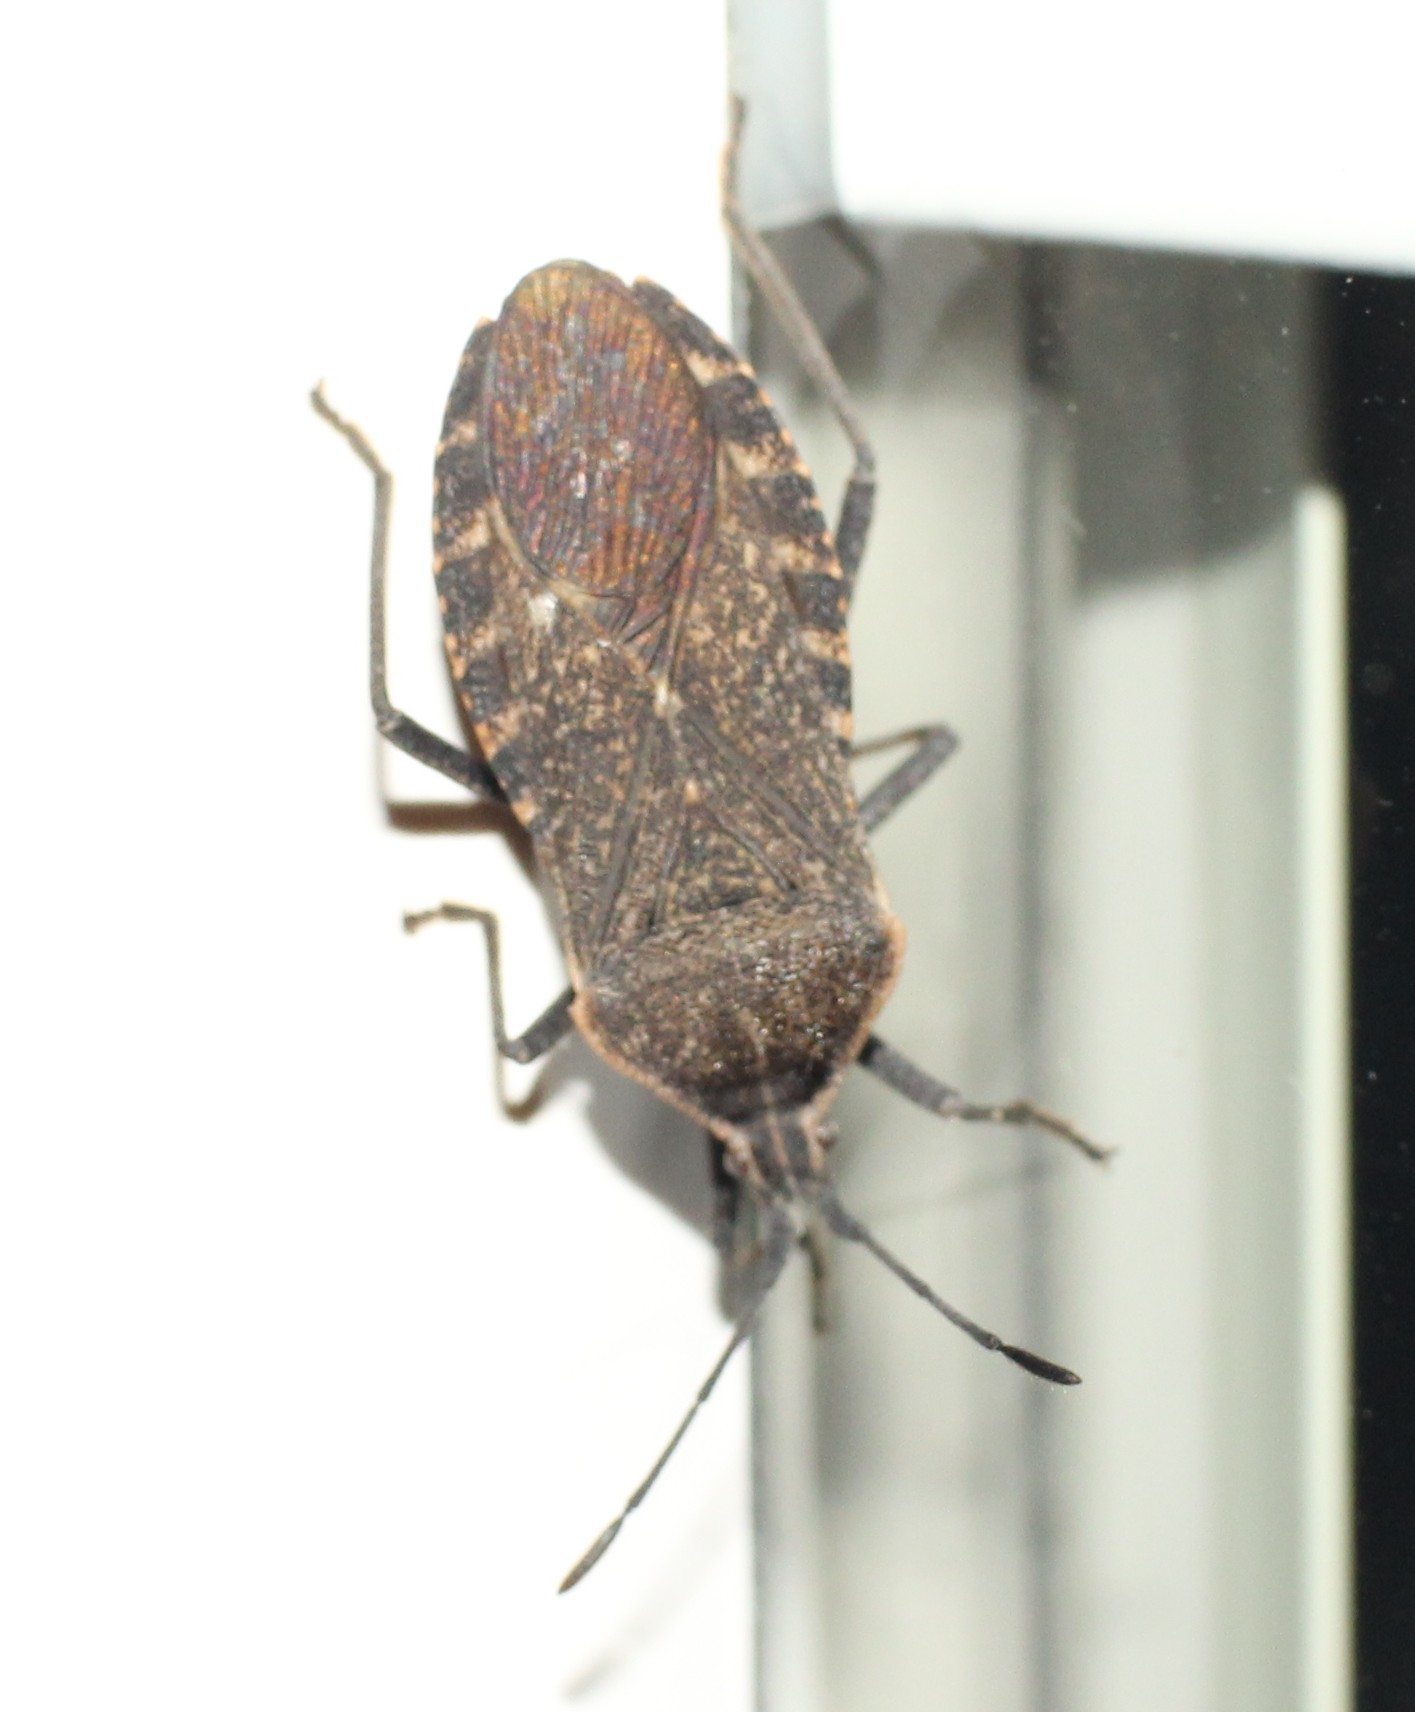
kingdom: Animalia
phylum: Arthropoda
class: Insecta
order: Hemiptera
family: Coreidae
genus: Anasa
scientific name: Anasa tristis
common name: Squash bug
